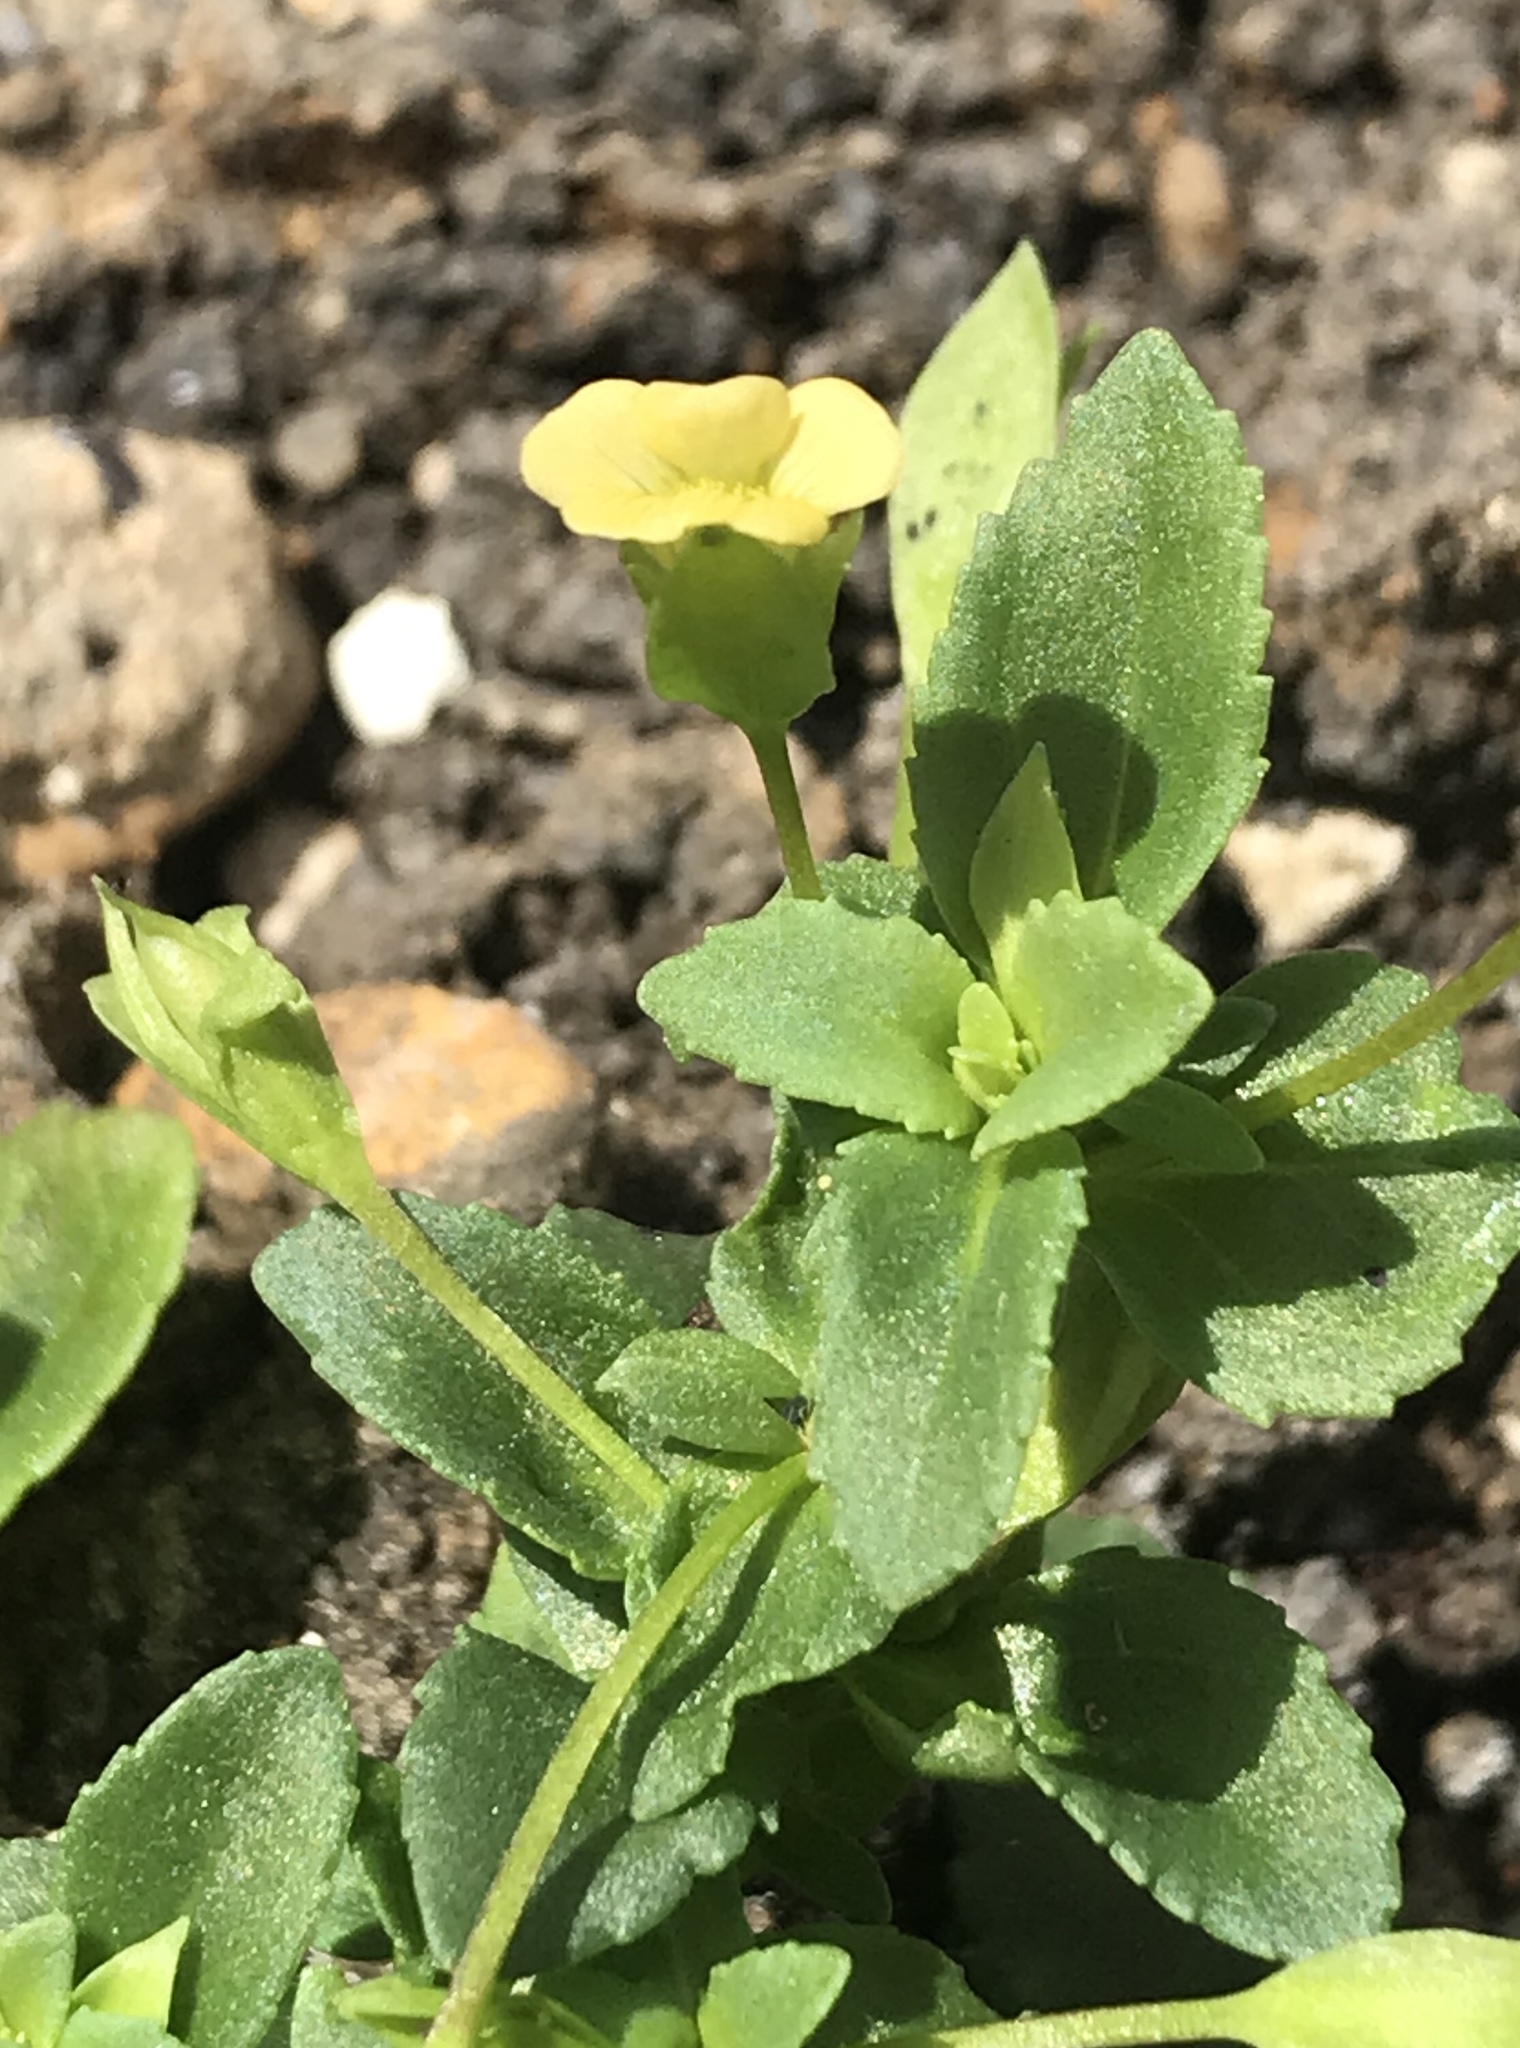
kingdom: Plantae
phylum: Tracheophyta
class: Magnoliopsida
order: Lamiales
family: Plantaginaceae
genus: Mecardonia
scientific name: Mecardonia procumbens
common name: Baby jump-up
